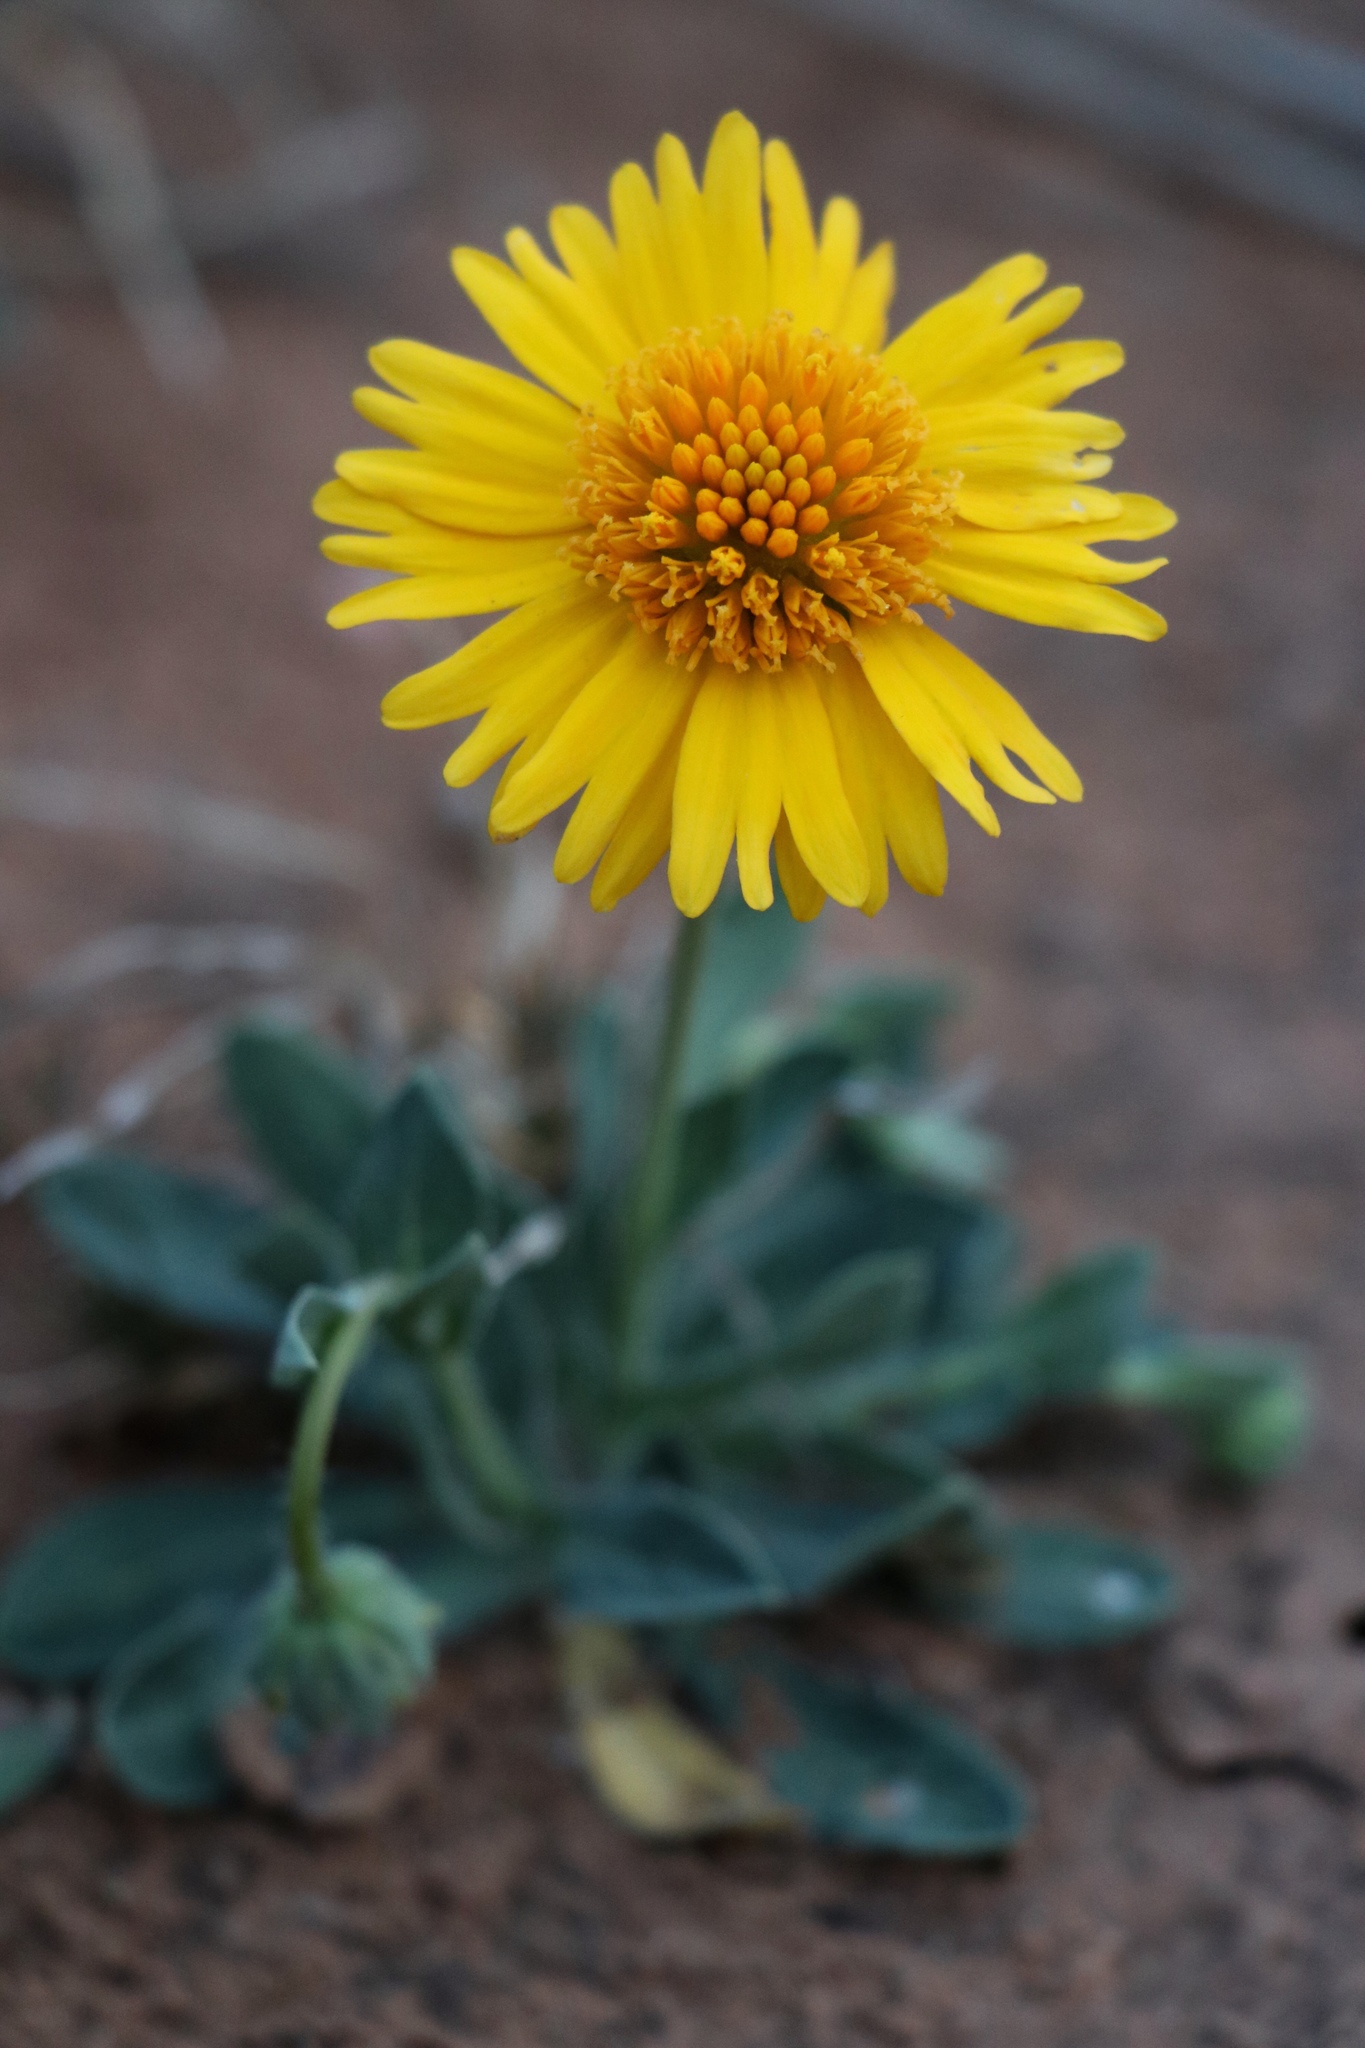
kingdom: Plantae
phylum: Tracheophyta
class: Magnoliopsida
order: Asterales
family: Asteraceae
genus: Amblyolepis
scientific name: Amblyolepis setigera
